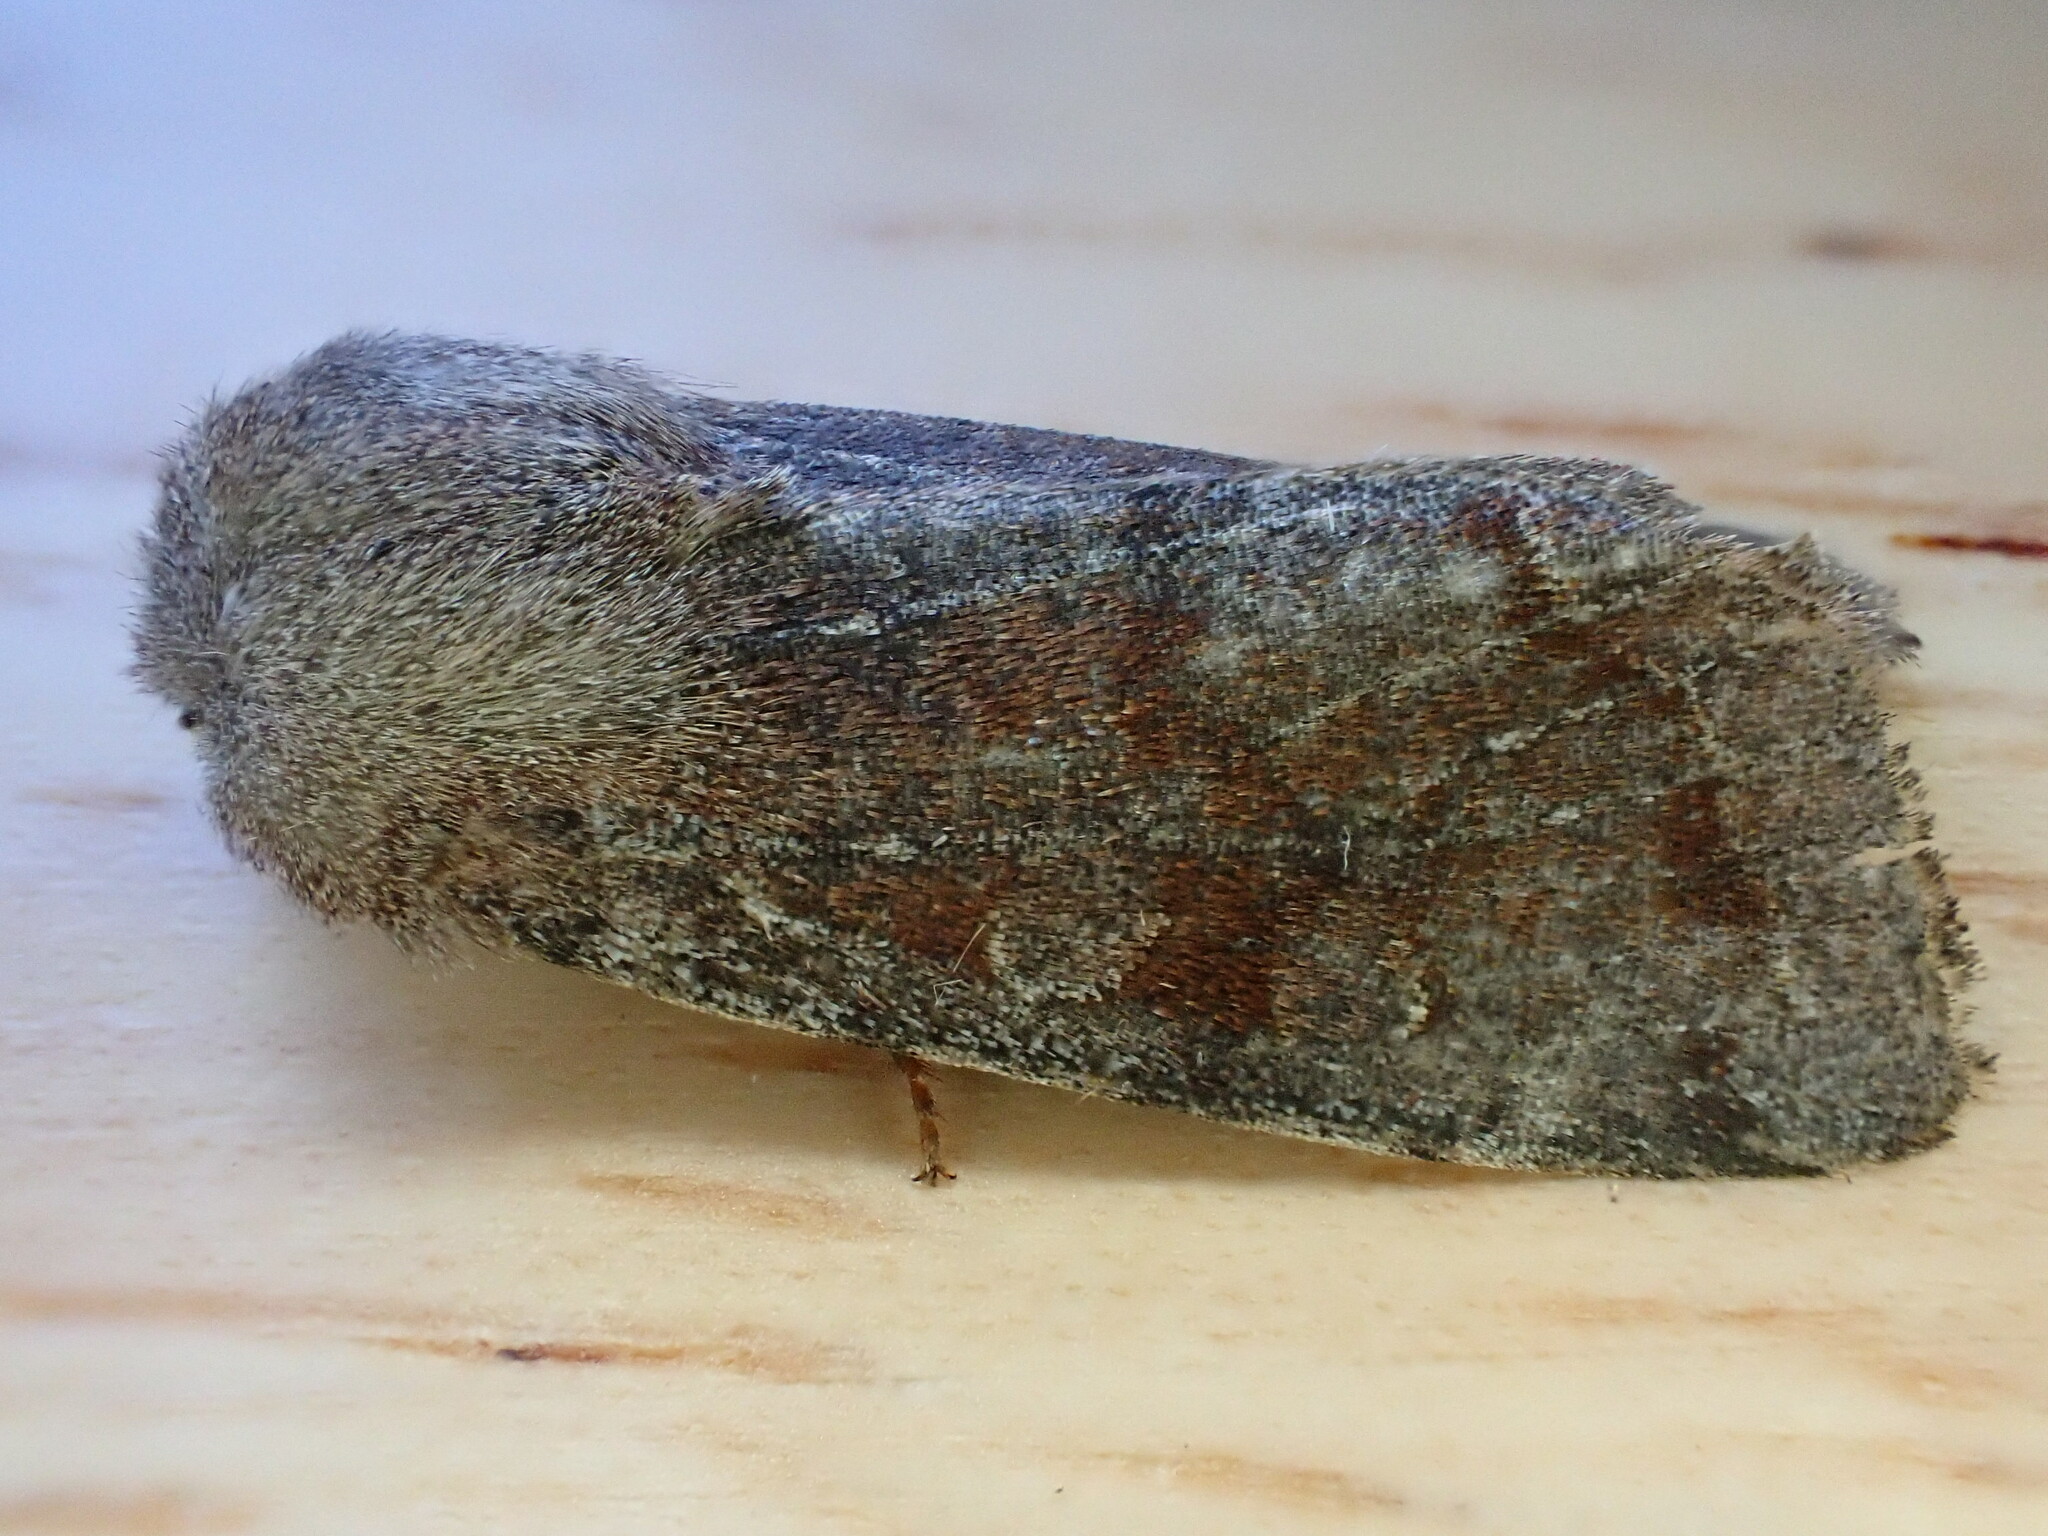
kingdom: Animalia
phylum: Arthropoda
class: Insecta
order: Lepidoptera
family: Noctuidae
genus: Orthosia
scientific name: Orthosia incerta
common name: Clouded drab
